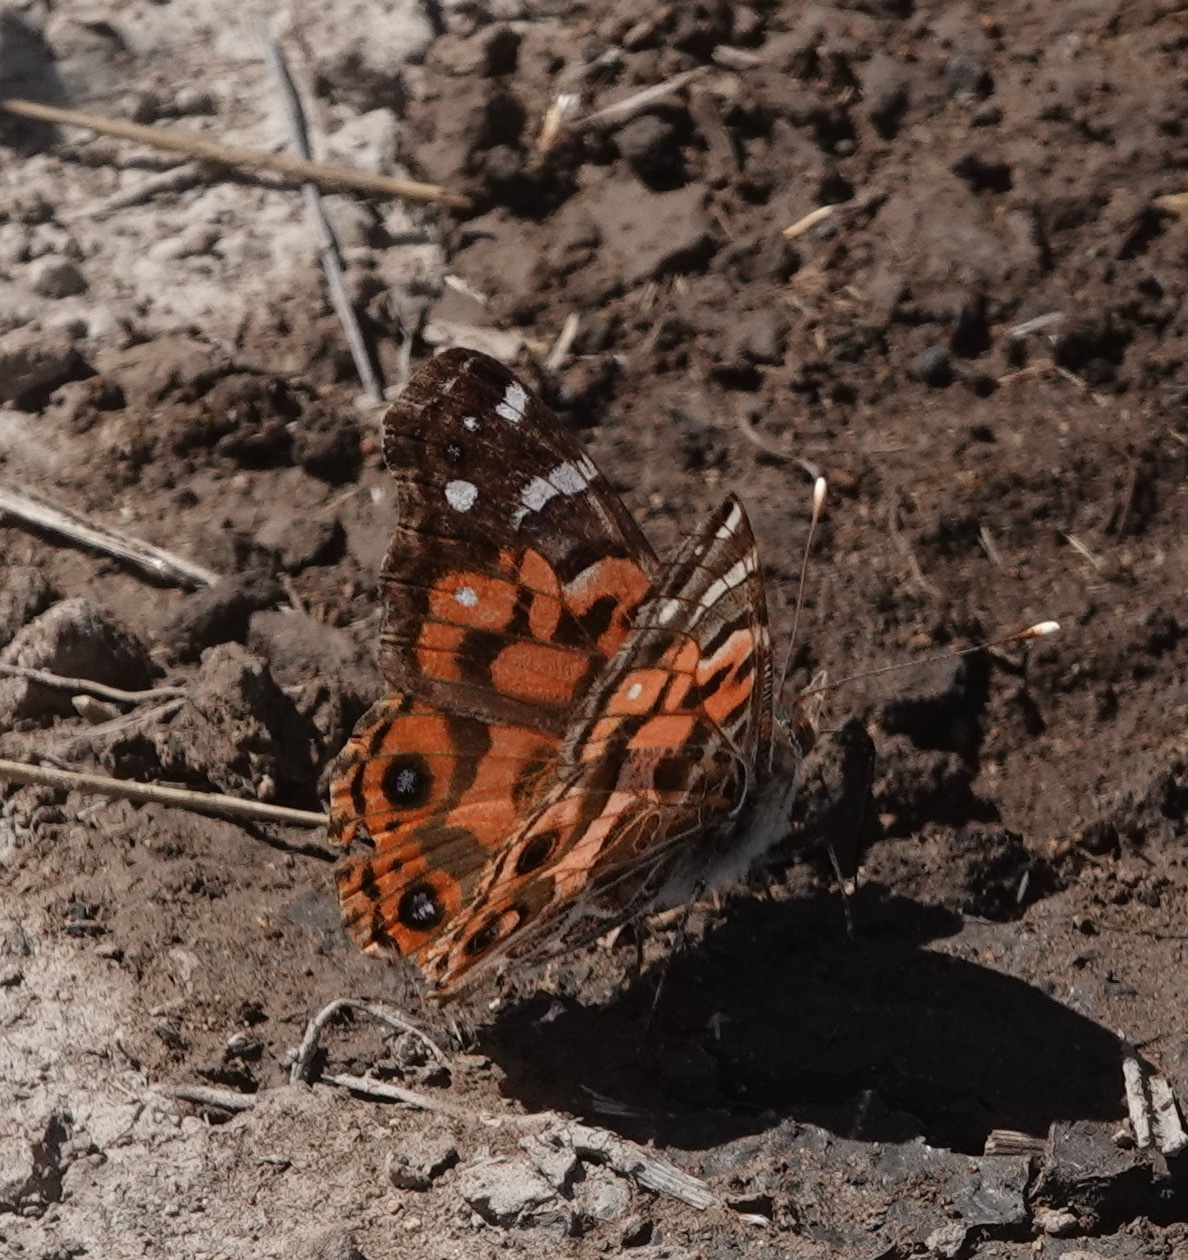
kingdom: Animalia
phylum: Arthropoda
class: Insecta
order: Lepidoptera
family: Nymphalidae
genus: Vanessa
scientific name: Vanessa braziliensis
